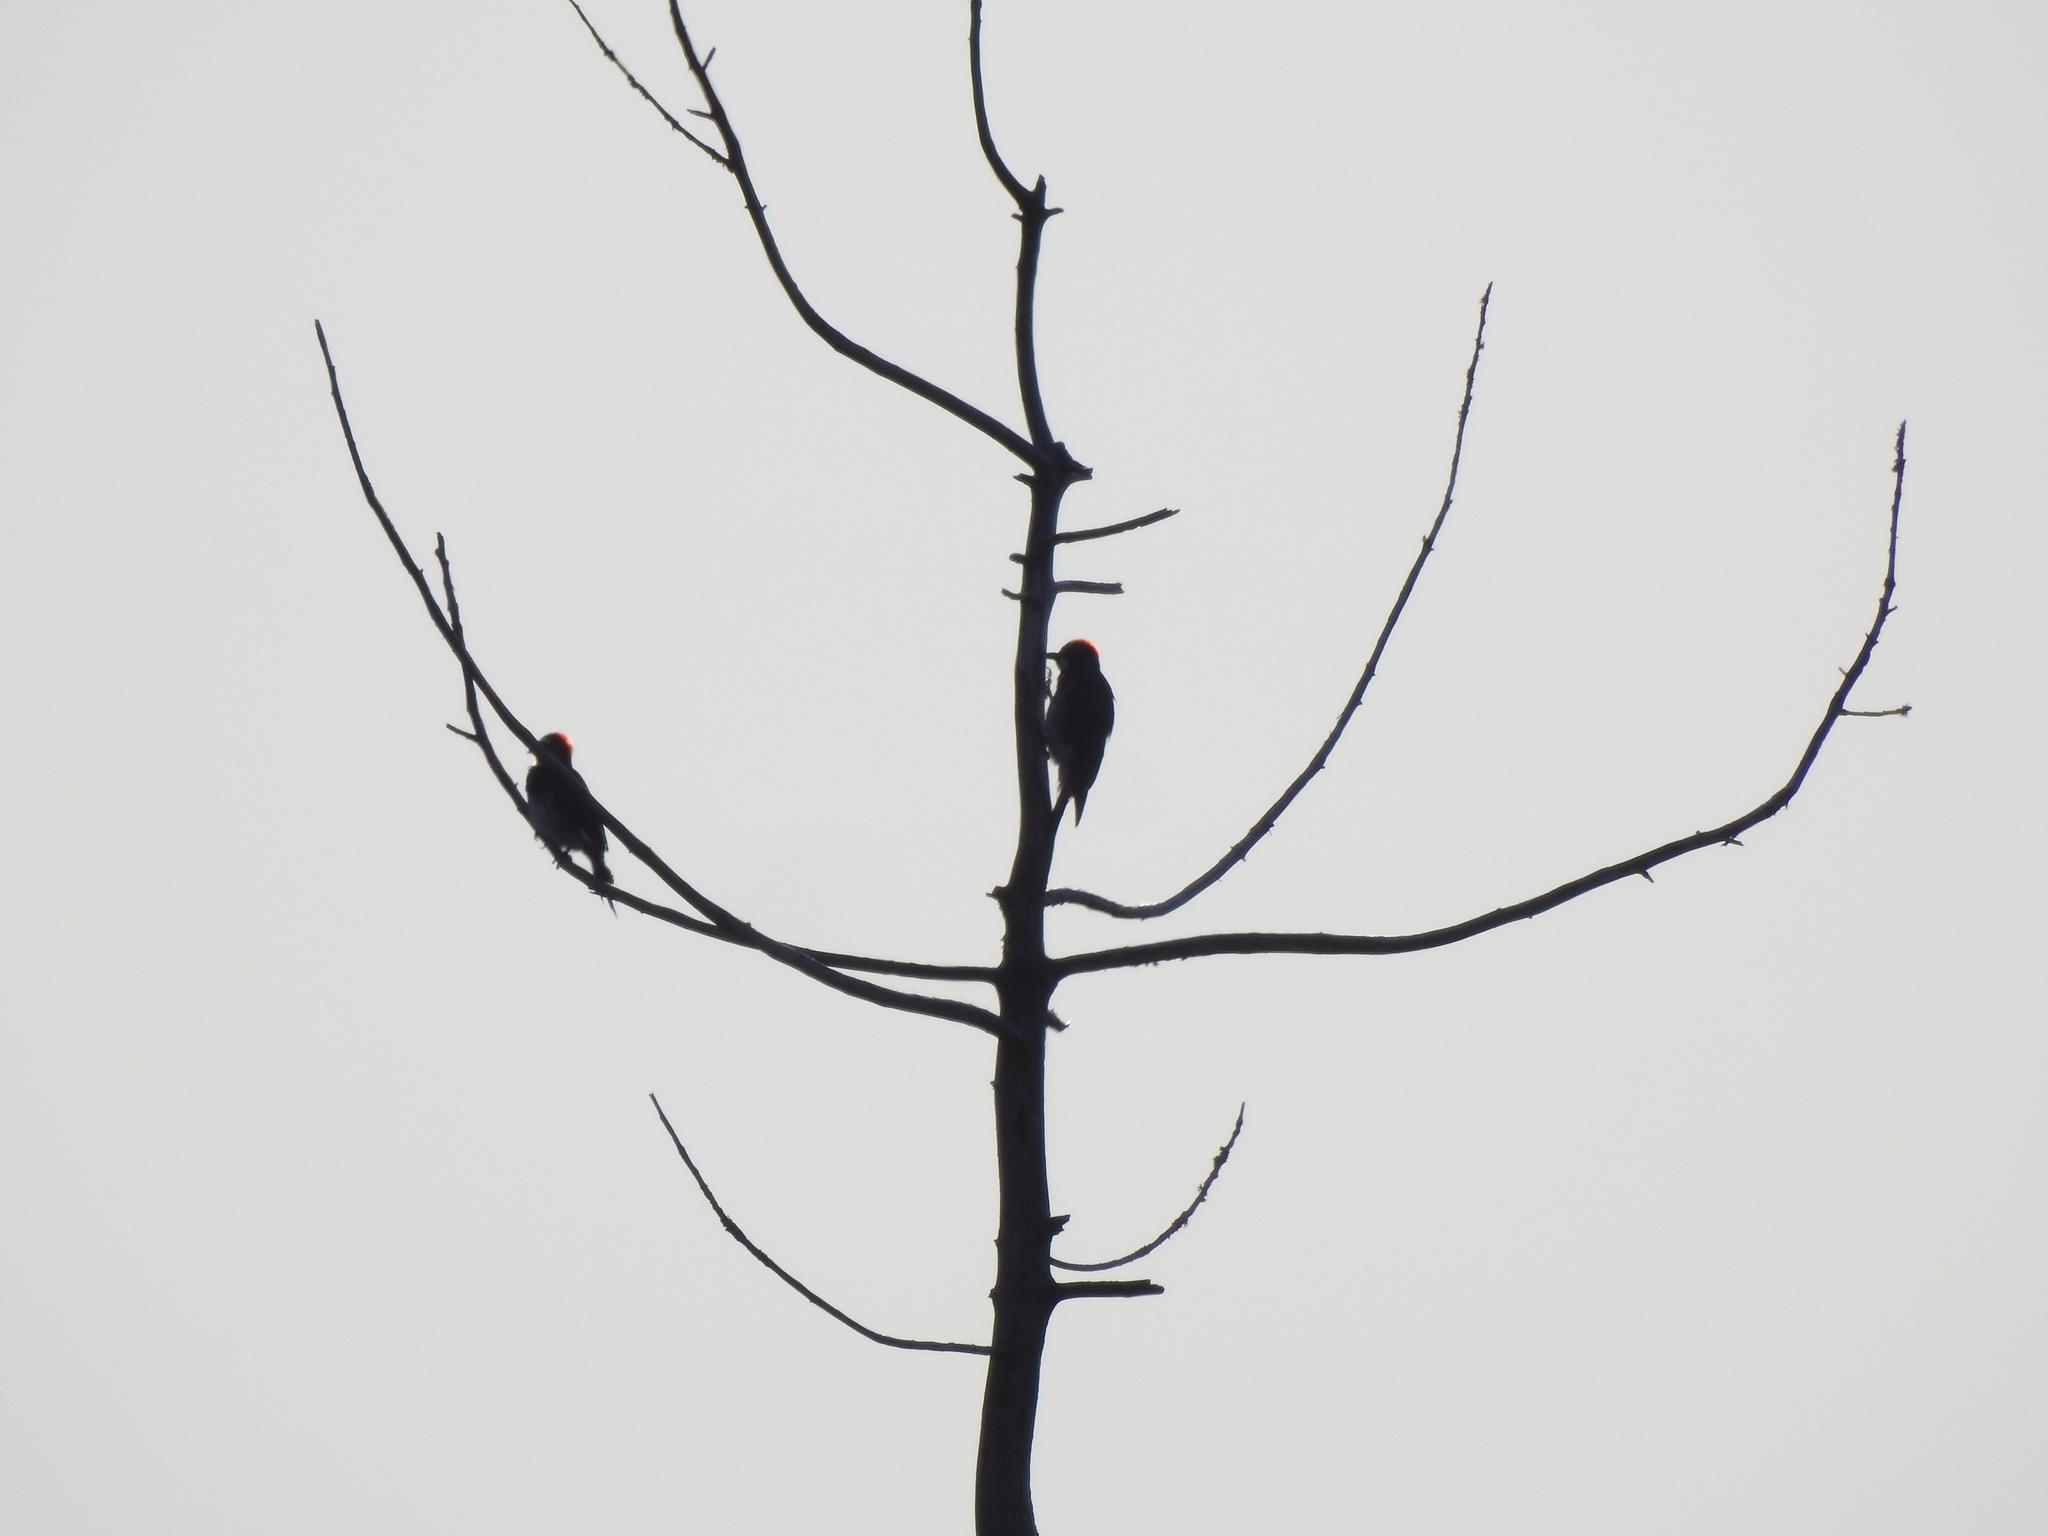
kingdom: Animalia
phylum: Chordata
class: Aves
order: Piciformes
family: Picidae
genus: Melanerpes
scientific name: Melanerpes formicivorus
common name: Acorn woodpecker
